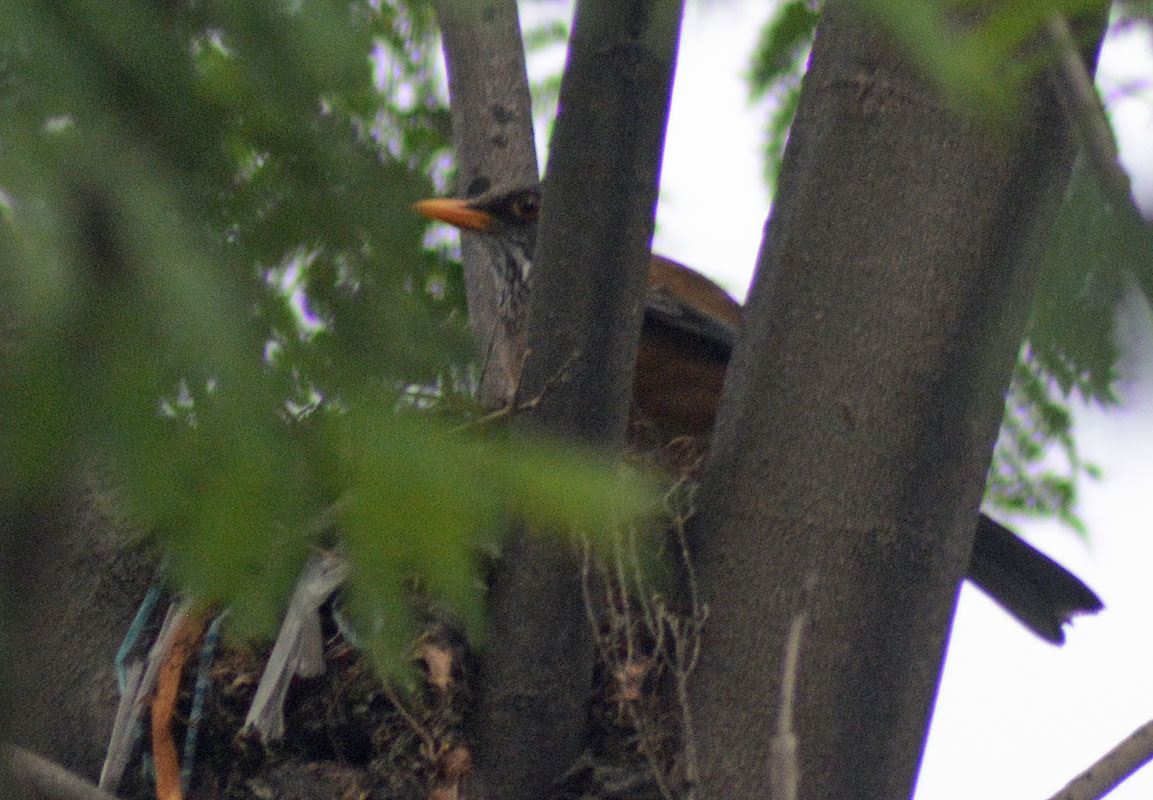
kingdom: Animalia
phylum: Chordata
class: Aves
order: Passeriformes
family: Turdidae
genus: Turdus
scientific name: Turdus rufopalliatus
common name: Rufous-backed robin
